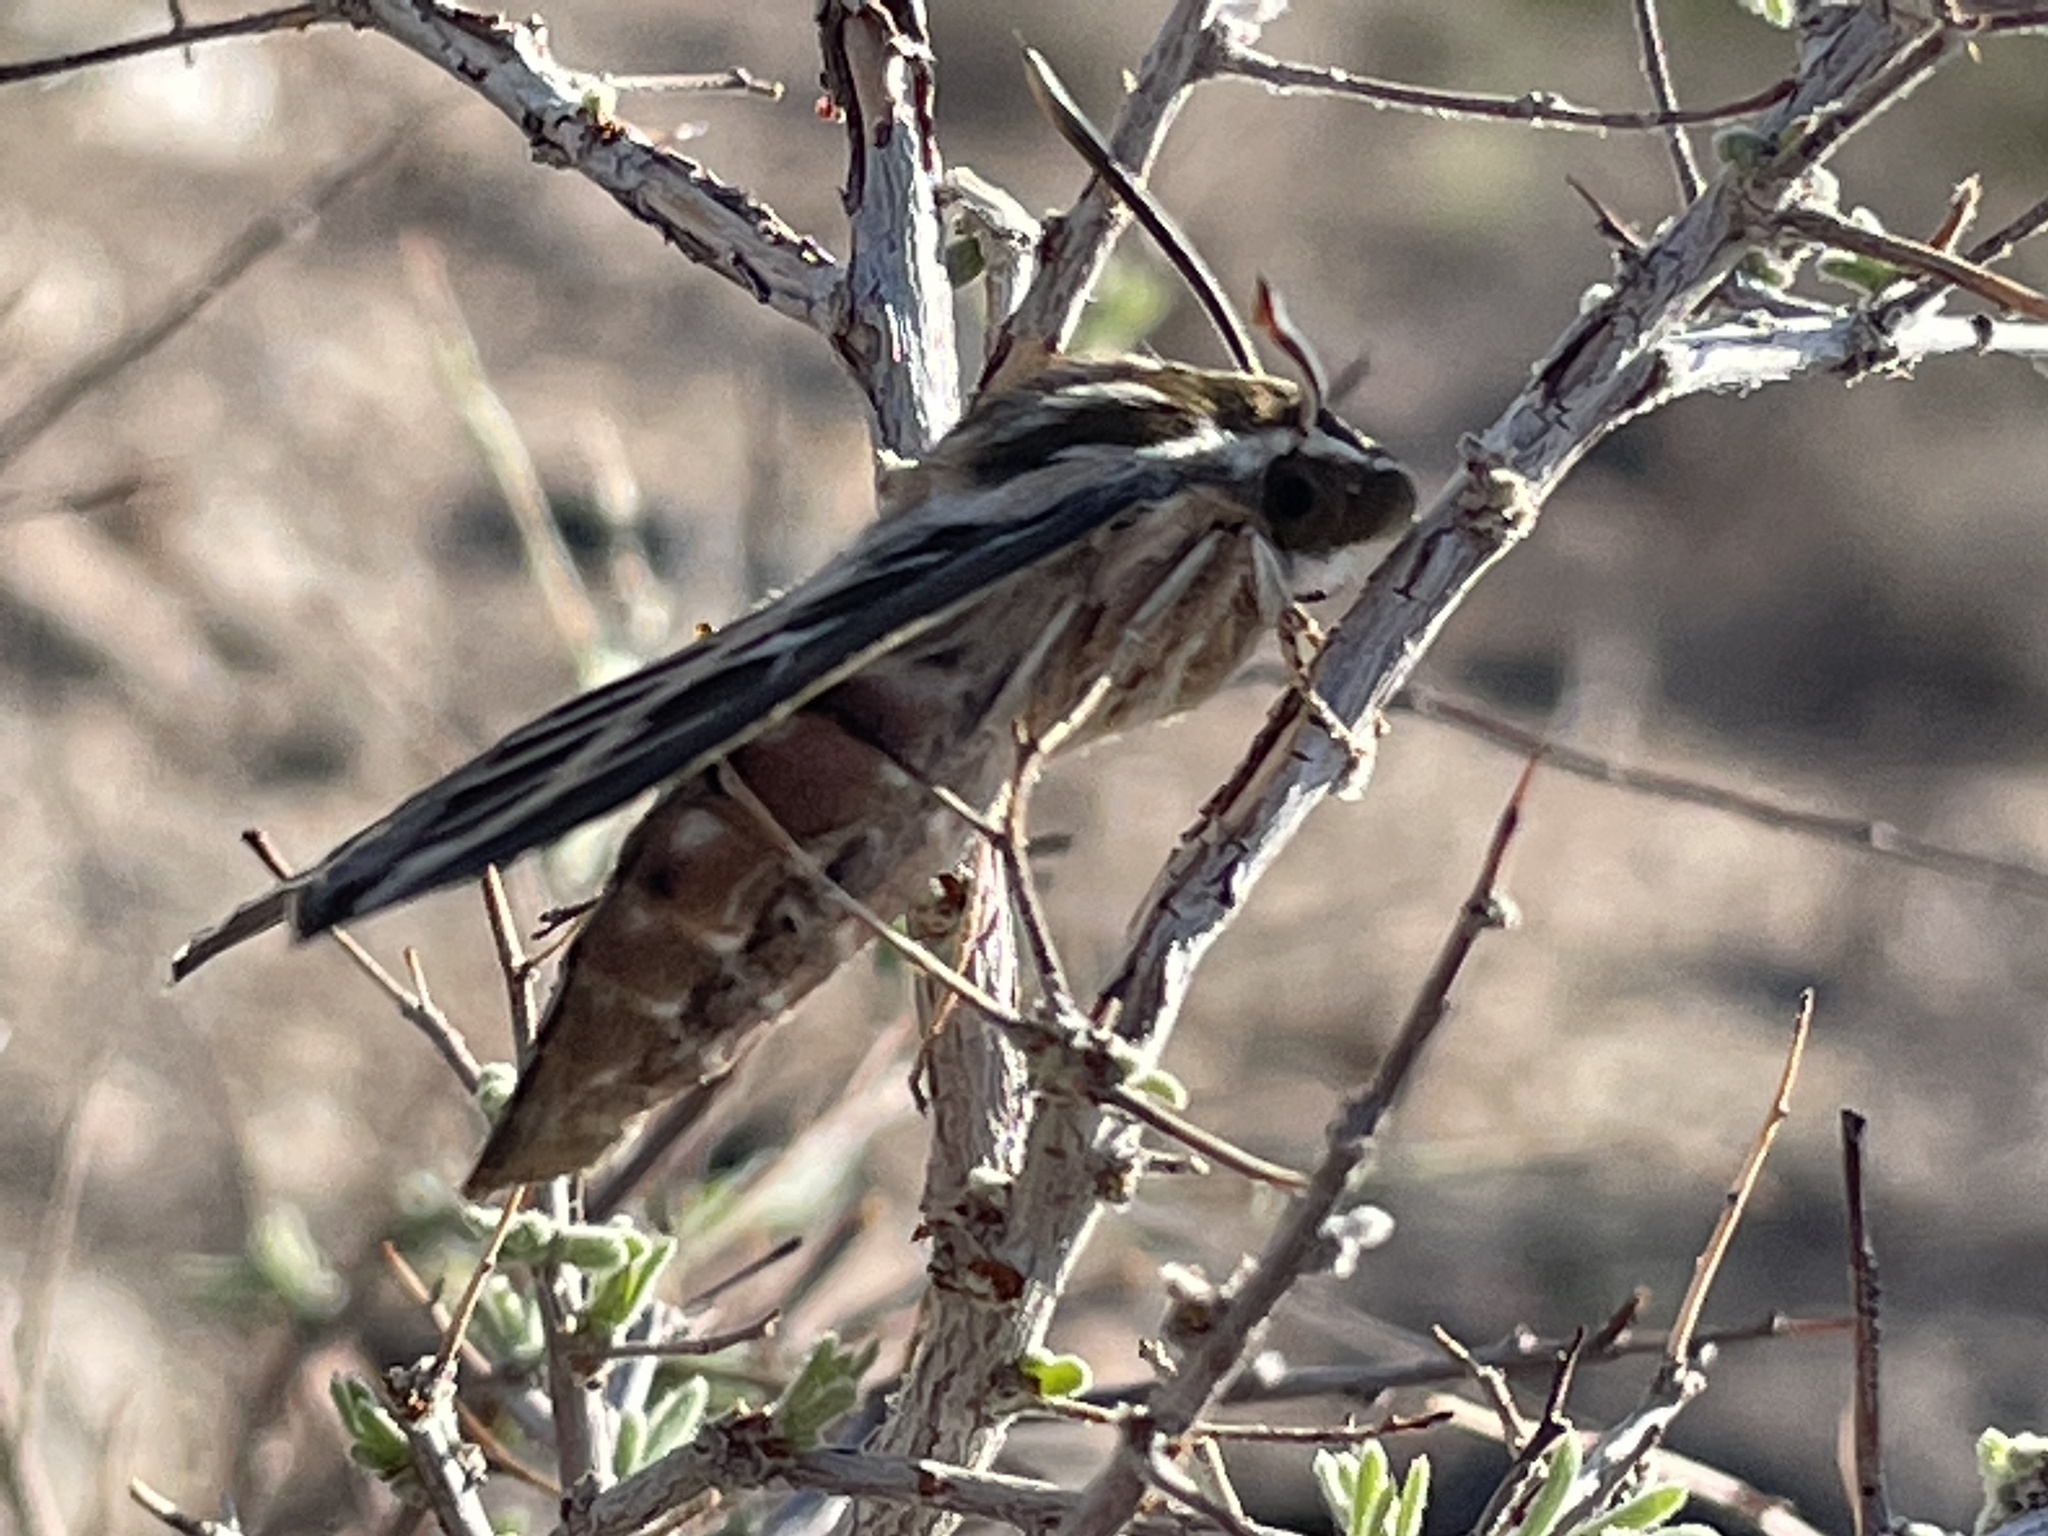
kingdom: Animalia
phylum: Arthropoda
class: Insecta
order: Lepidoptera
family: Sphingidae
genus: Hyles
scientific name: Hyles lineata
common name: White-lined sphinx
